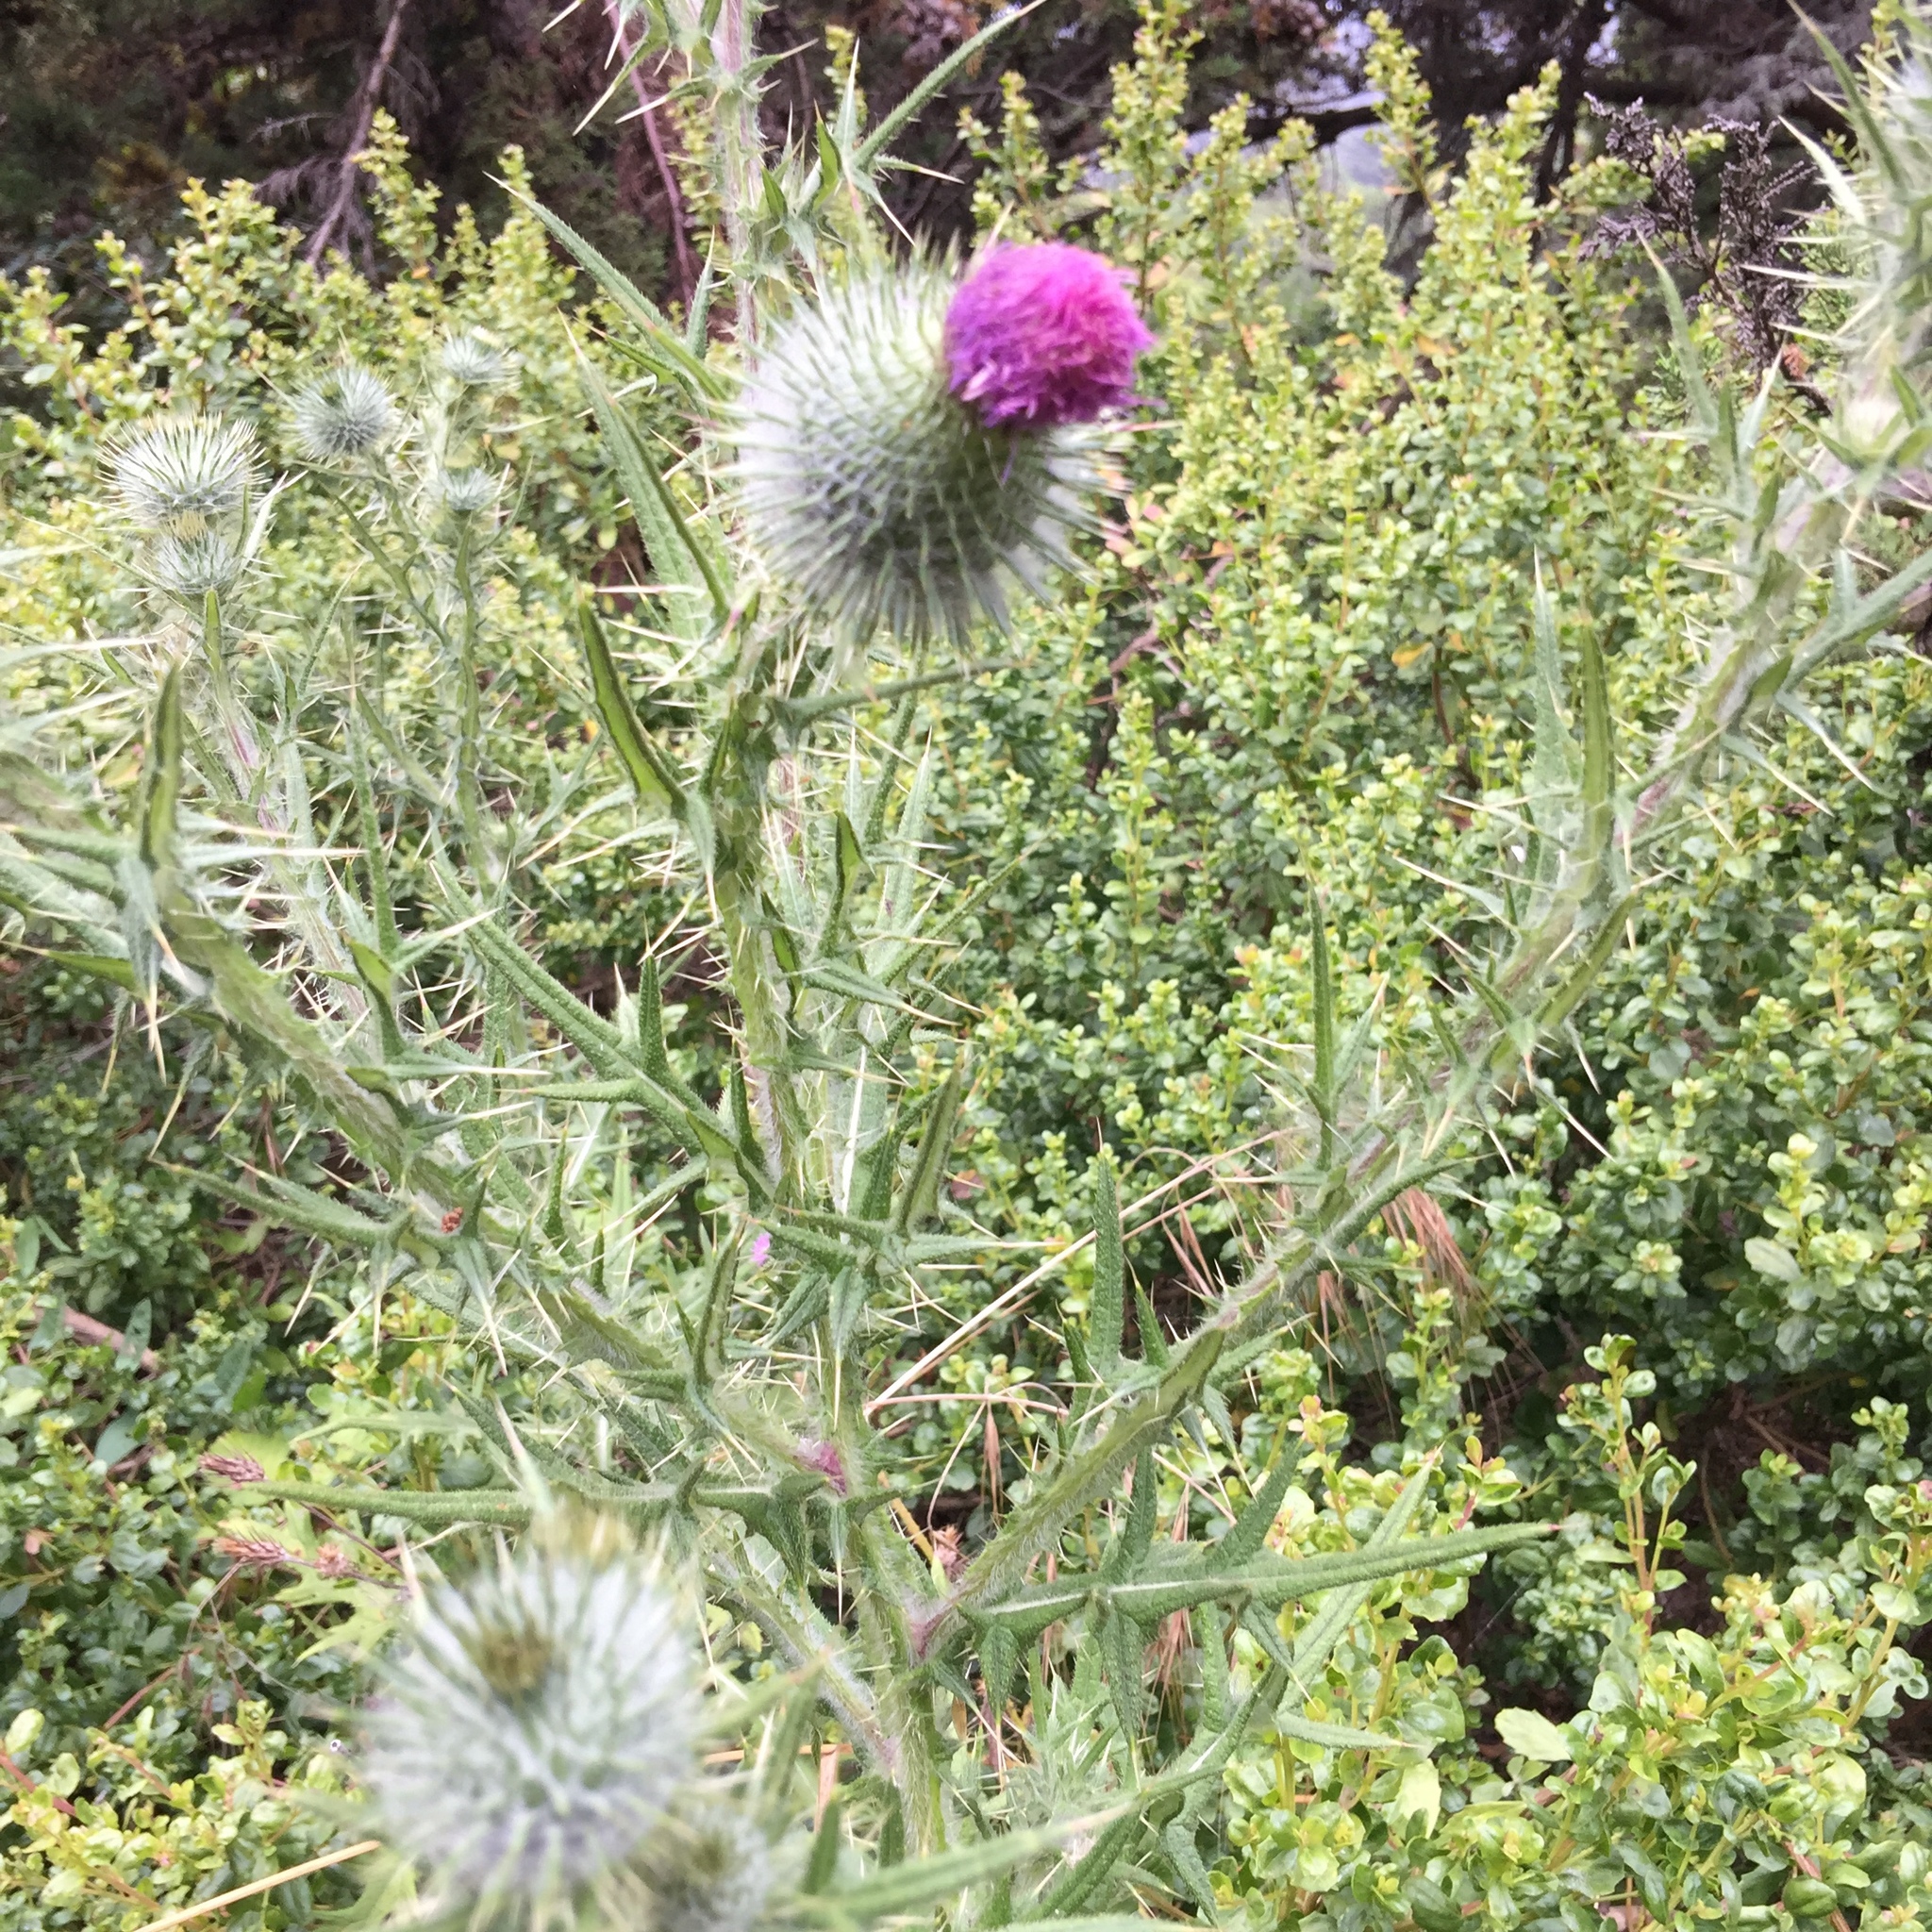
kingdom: Plantae
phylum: Tracheophyta
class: Magnoliopsida
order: Asterales
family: Asteraceae
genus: Cirsium
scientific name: Cirsium vulgare
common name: Bull thistle
